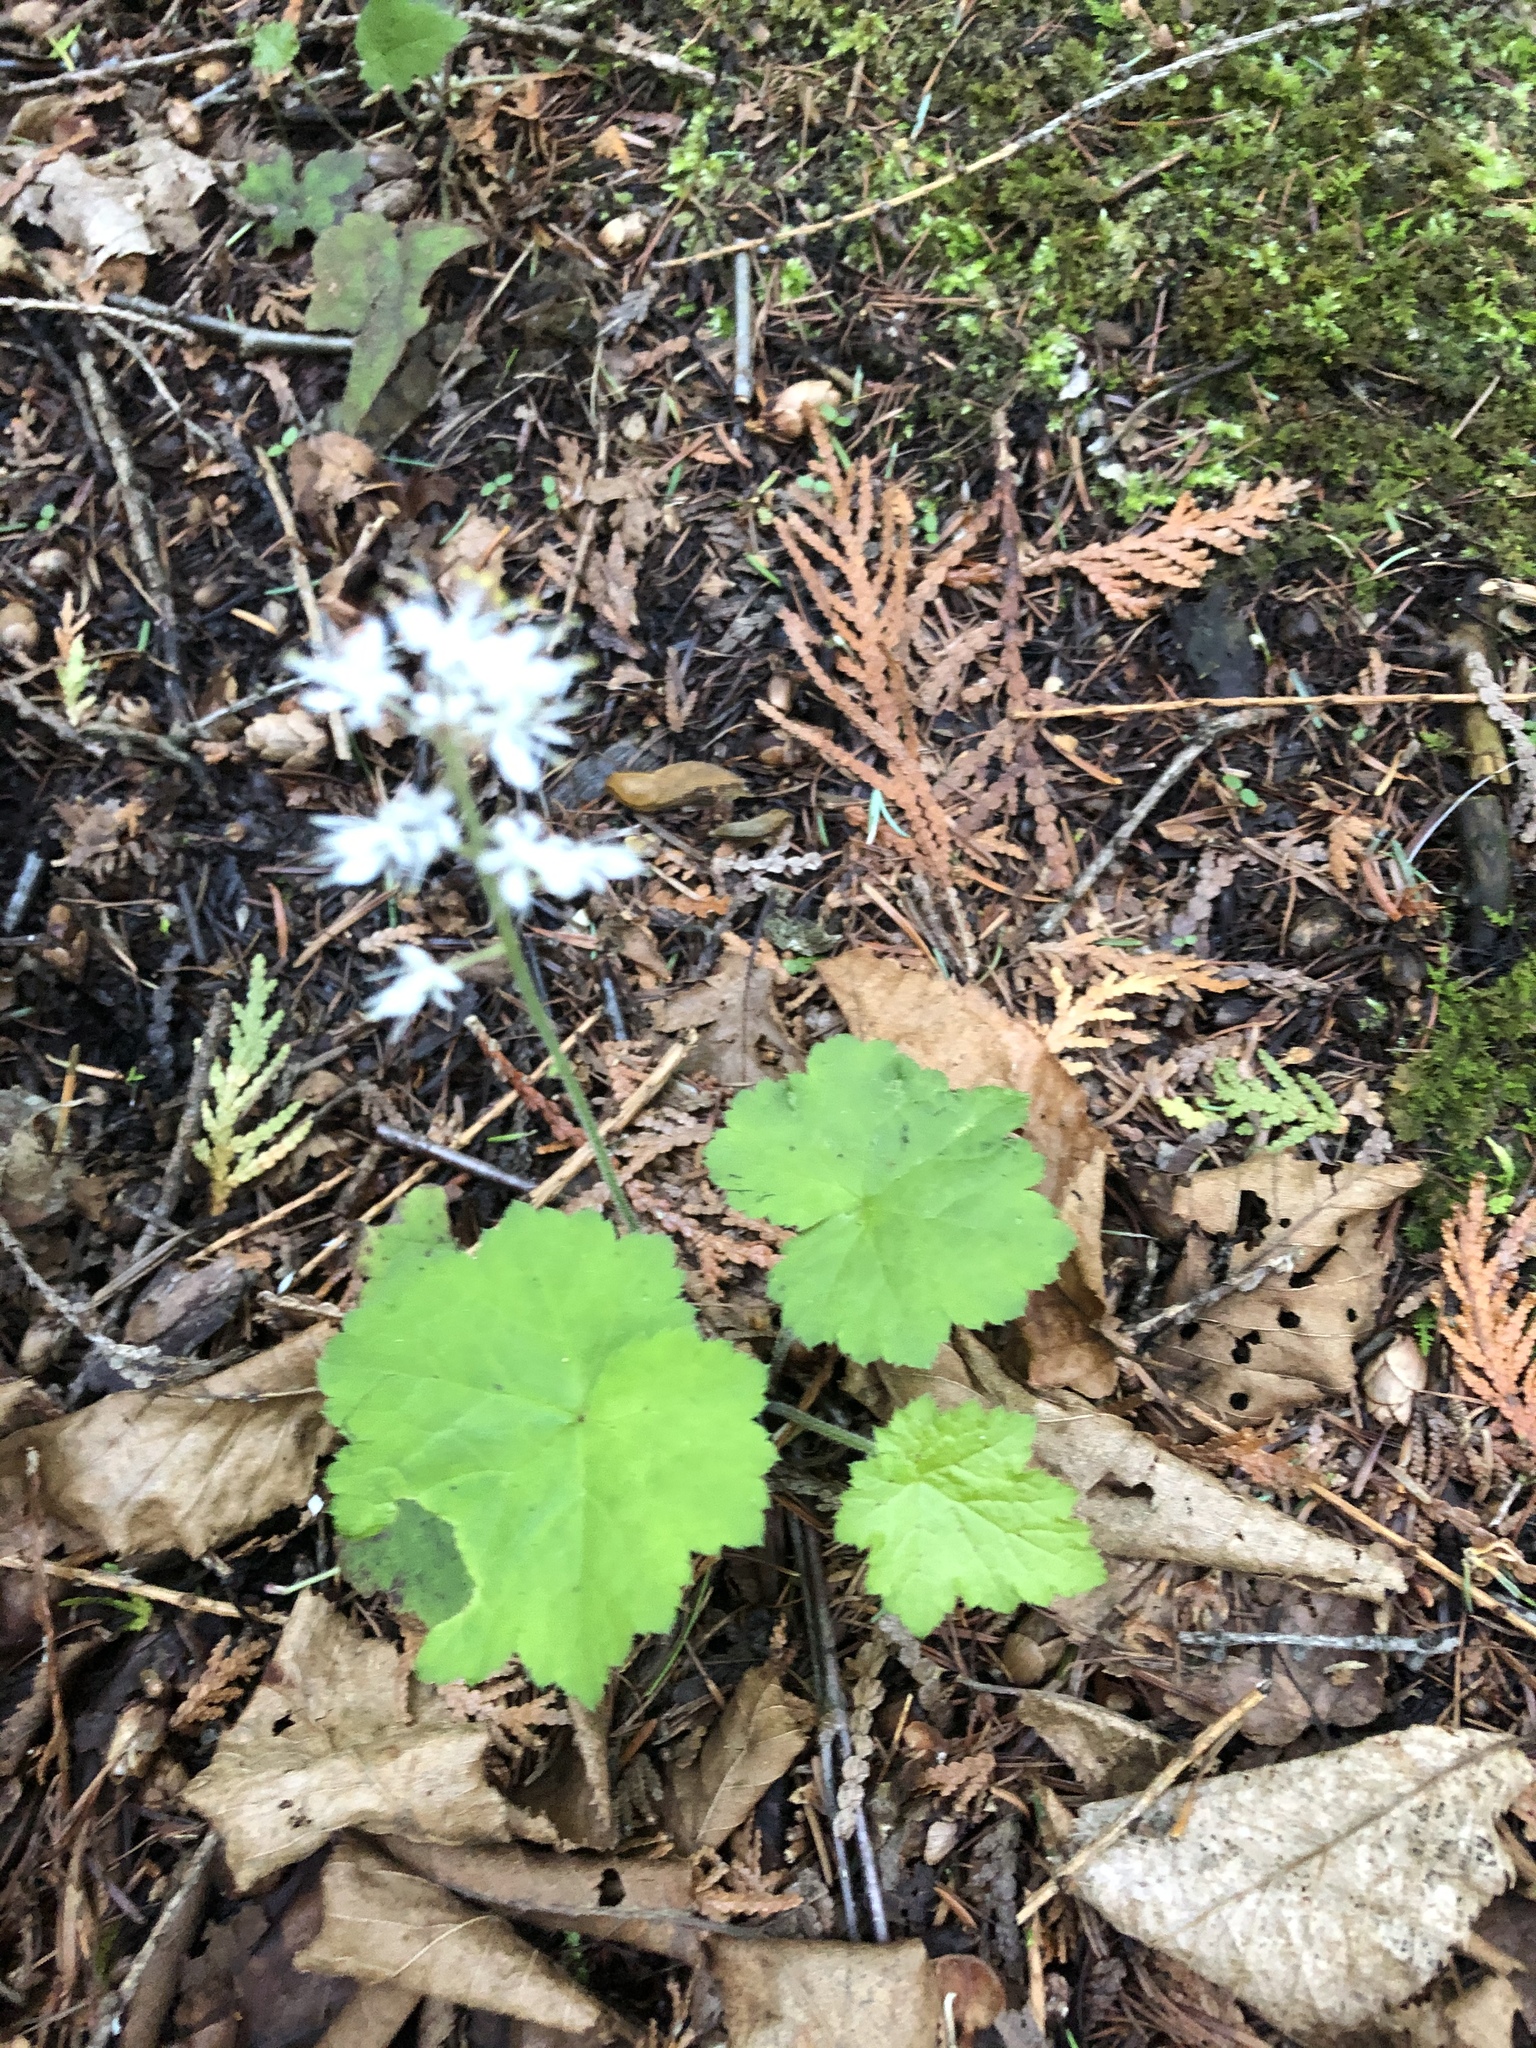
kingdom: Plantae
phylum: Tracheophyta
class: Magnoliopsida
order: Saxifragales
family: Saxifragaceae
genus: Tiarella
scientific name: Tiarella stolonifera
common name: Stoloniferous foamflower
